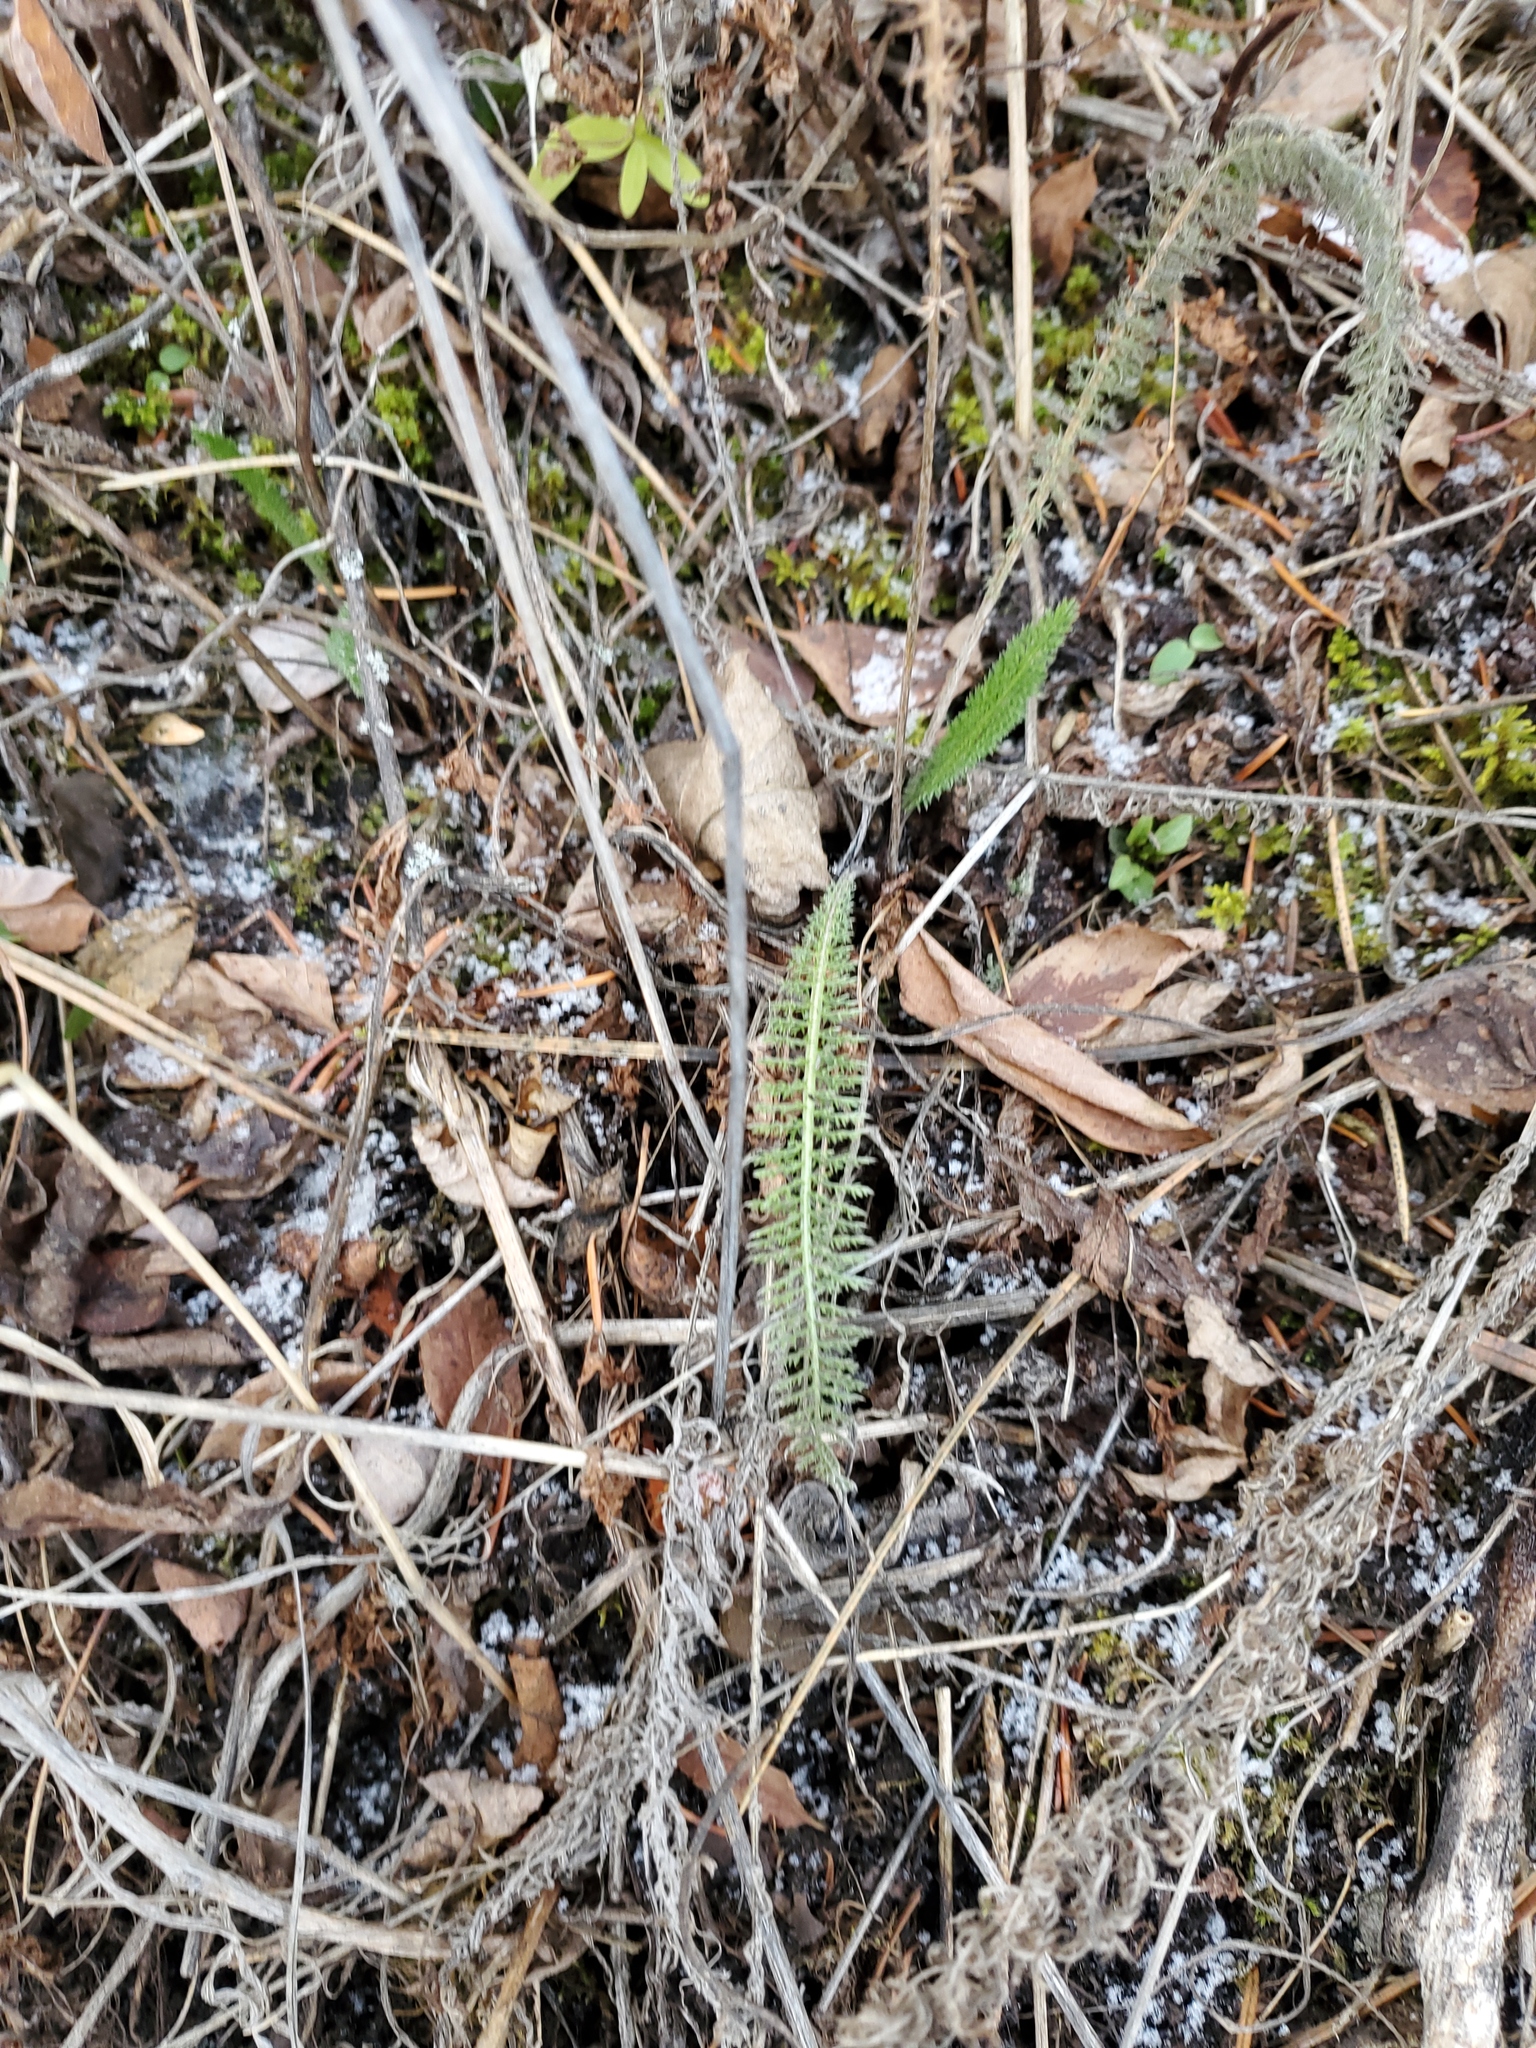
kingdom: Plantae
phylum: Tracheophyta
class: Magnoliopsida
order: Asterales
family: Asteraceae
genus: Achillea
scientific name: Achillea millefolium
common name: Yarrow
